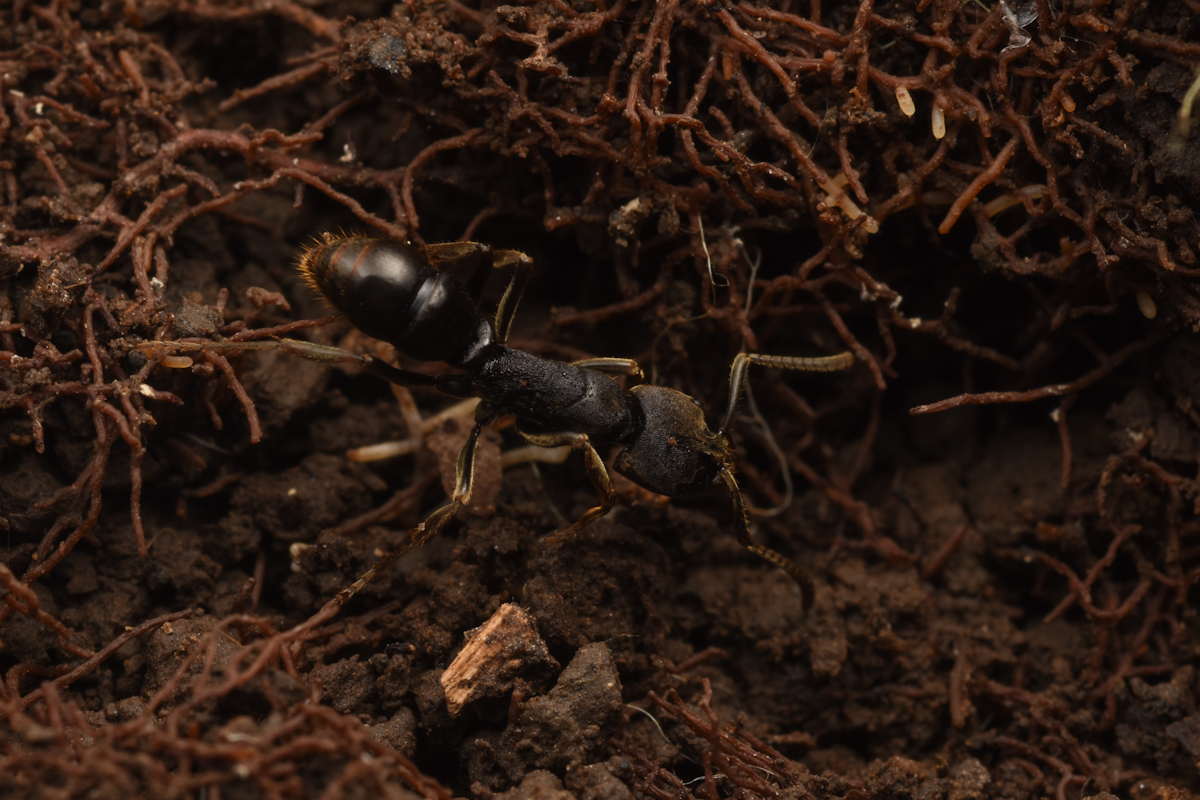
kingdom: Animalia
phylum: Arthropoda
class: Insecta
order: Hymenoptera
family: Formicidae
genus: Ectomomyrmex
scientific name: Ectomomyrmex javanus
